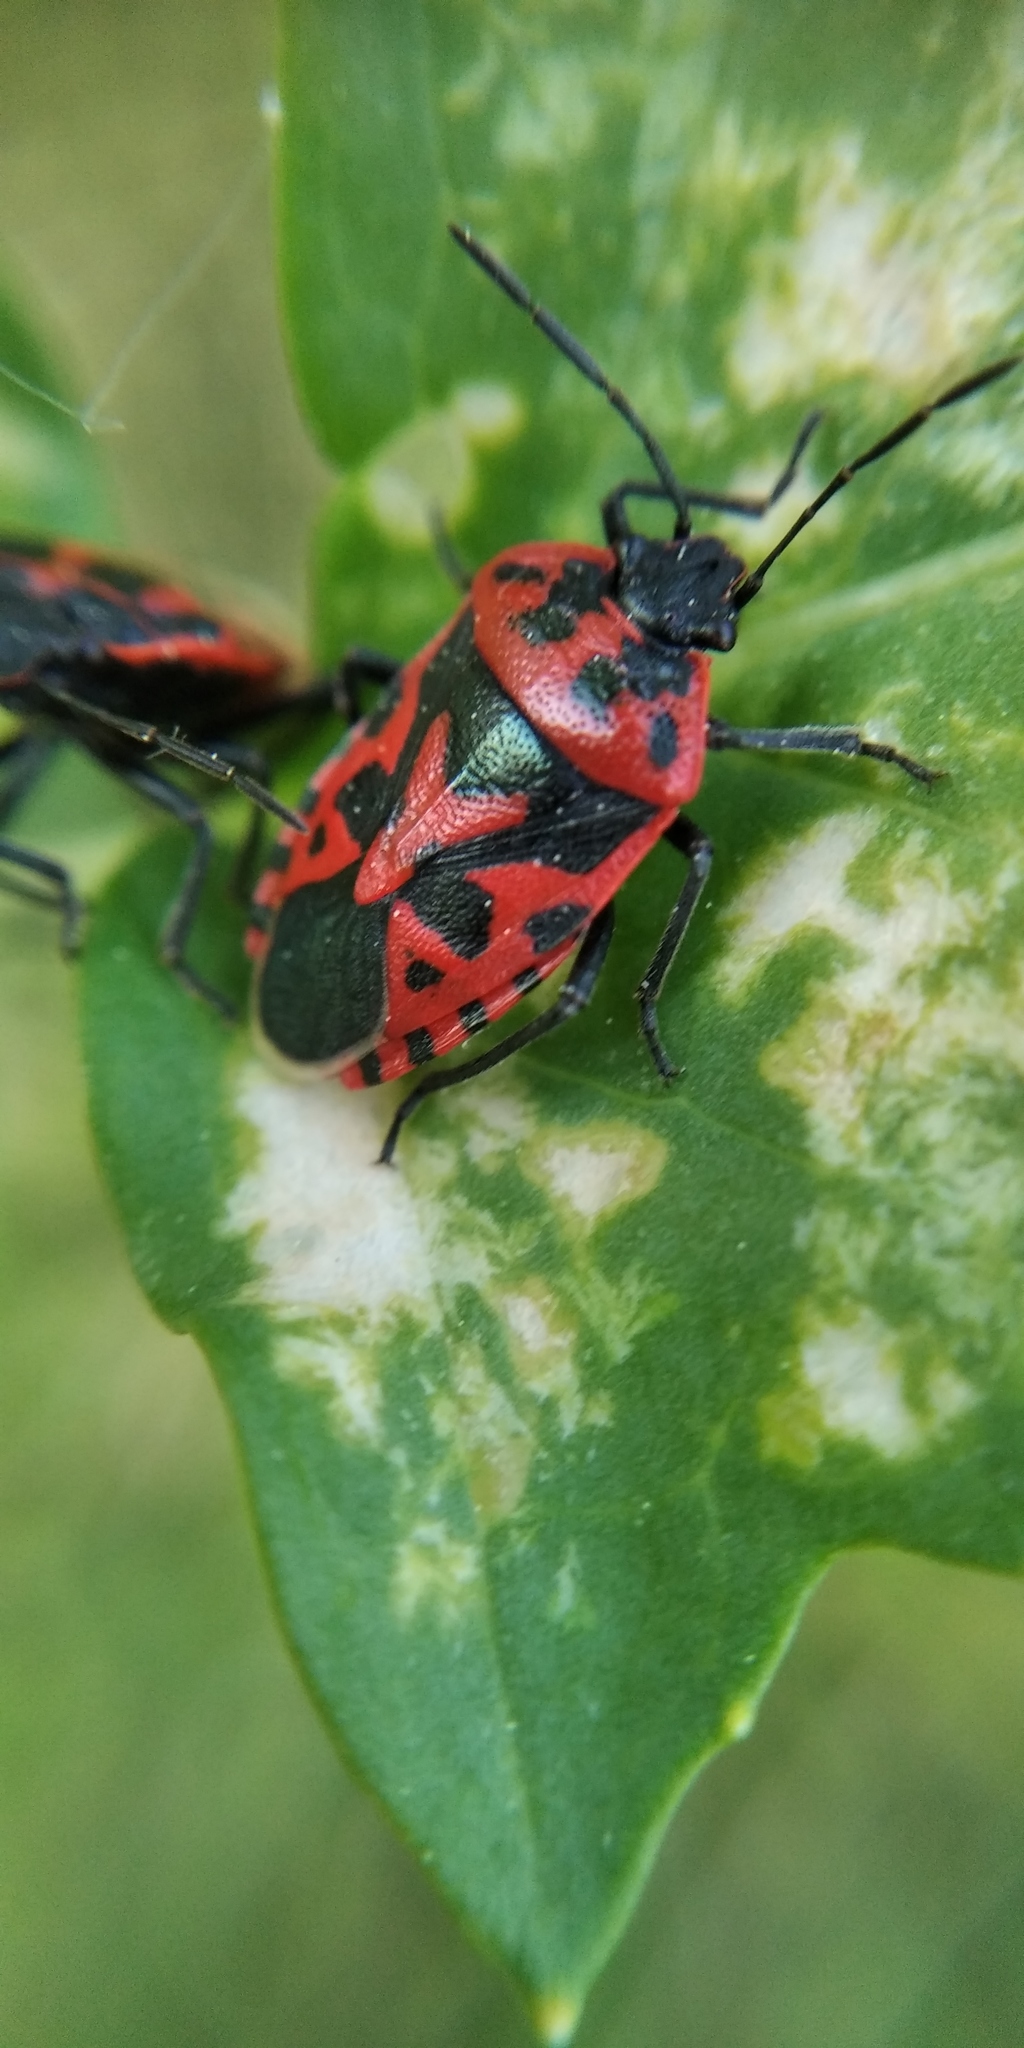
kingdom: Animalia
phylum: Arthropoda
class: Insecta
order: Hemiptera
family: Pentatomidae
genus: Eurydema
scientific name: Eurydema ventralis
